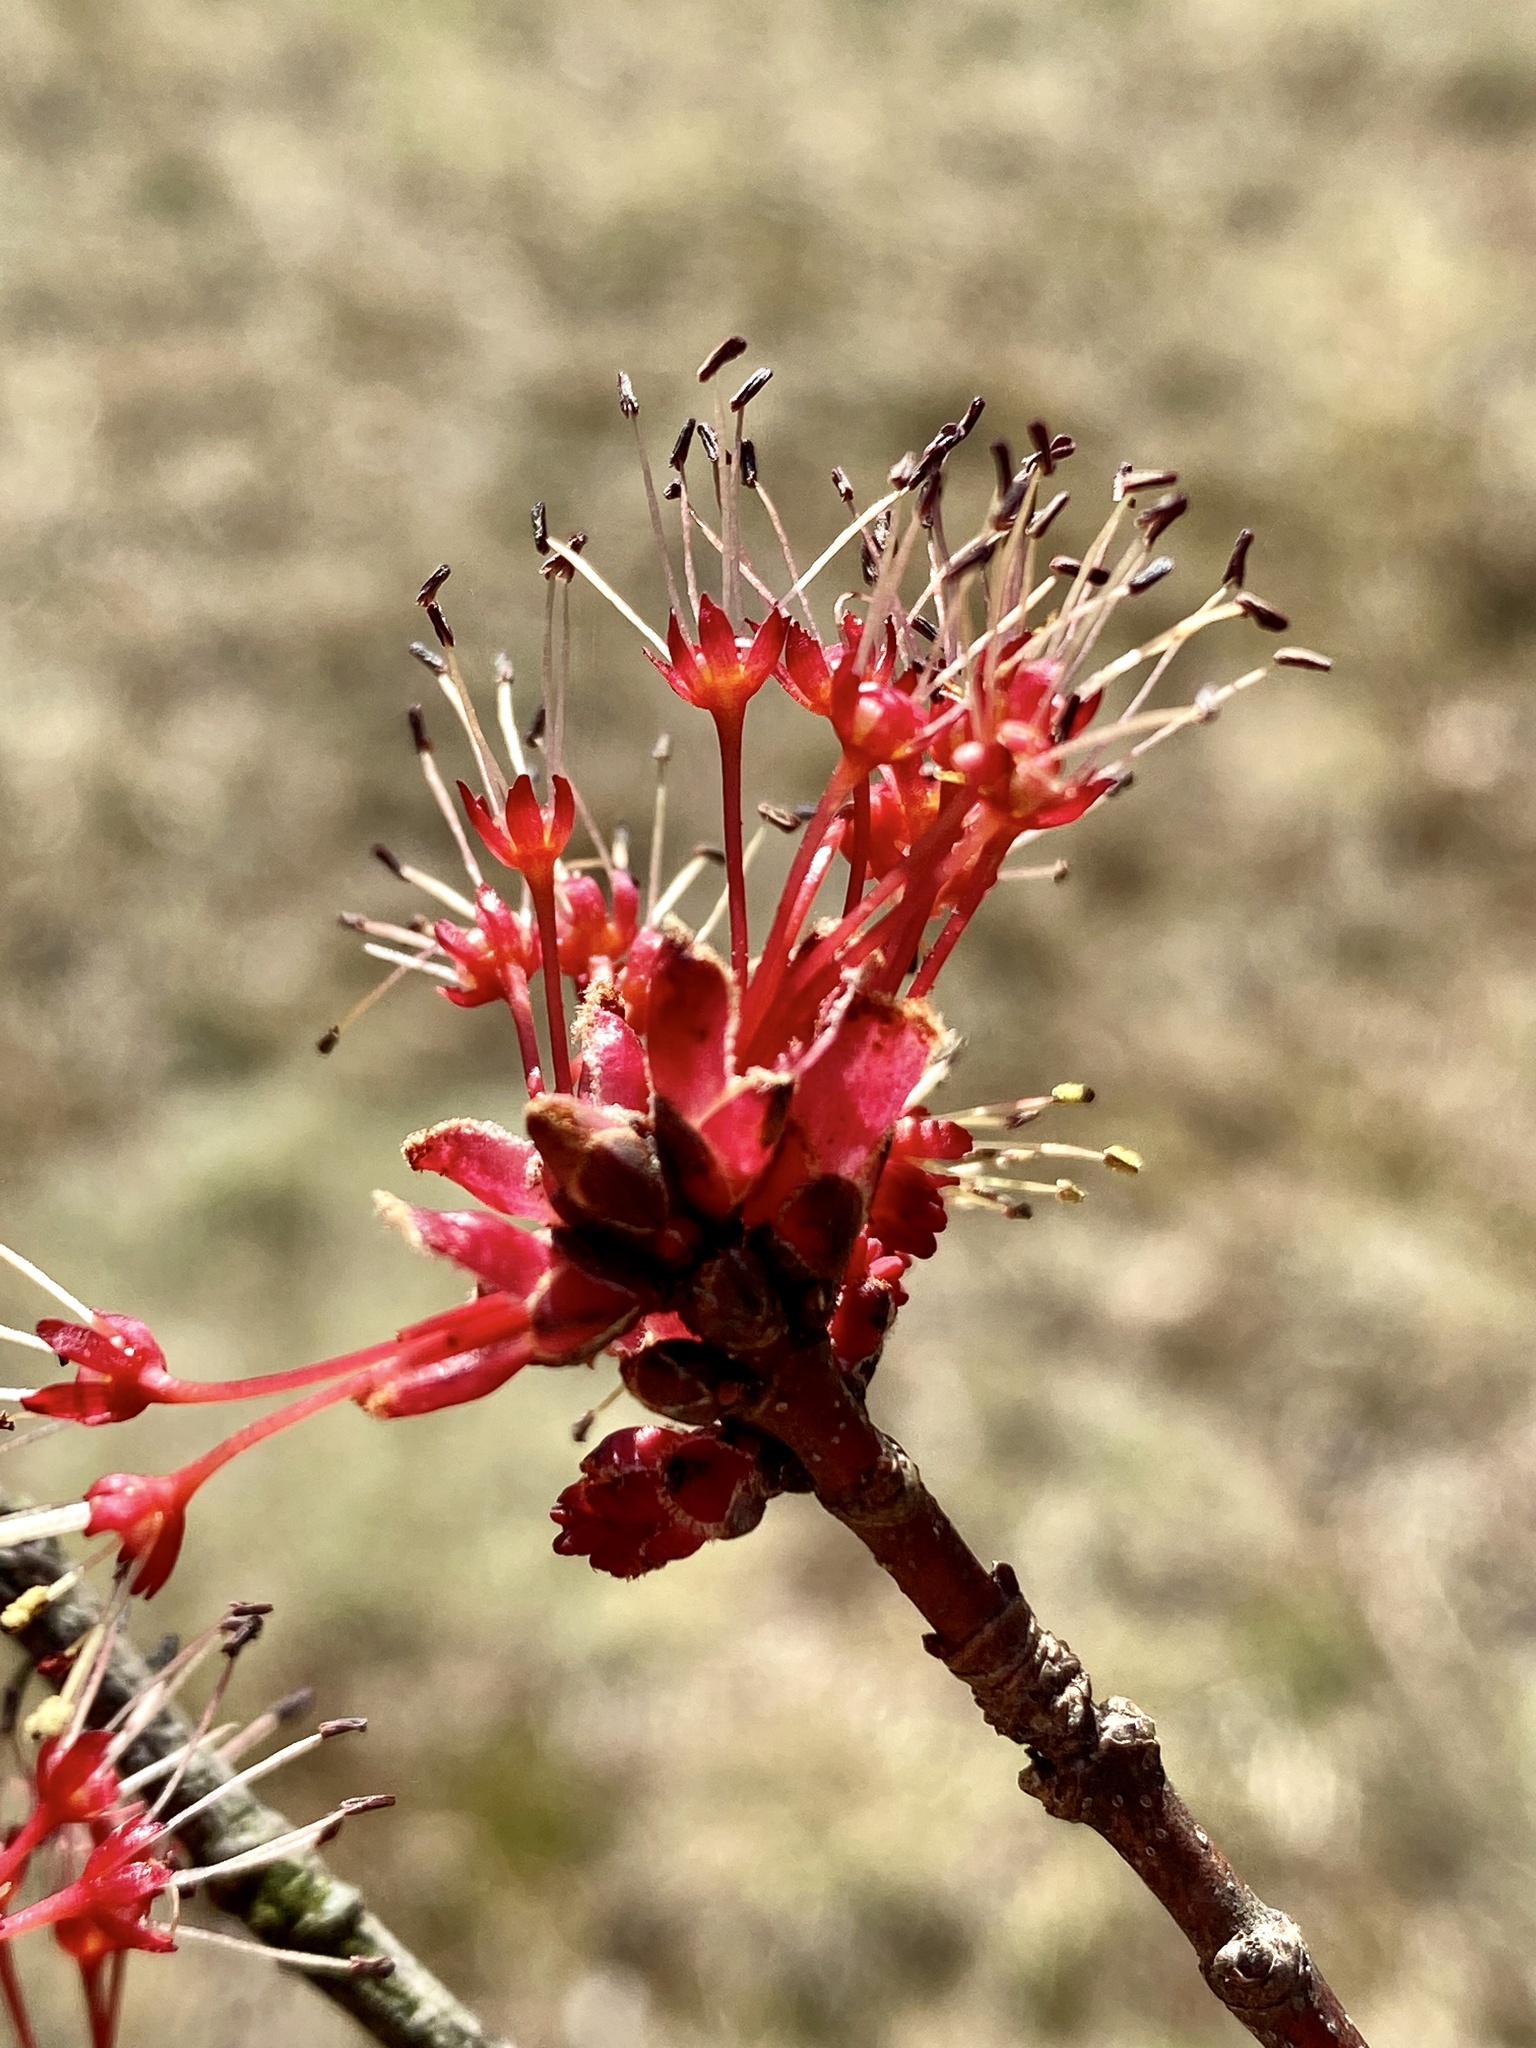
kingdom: Plantae
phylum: Tracheophyta
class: Magnoliopsida
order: Sapindales
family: Sapindaceae
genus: Acer
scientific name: Acer rubrum
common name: Red maple
